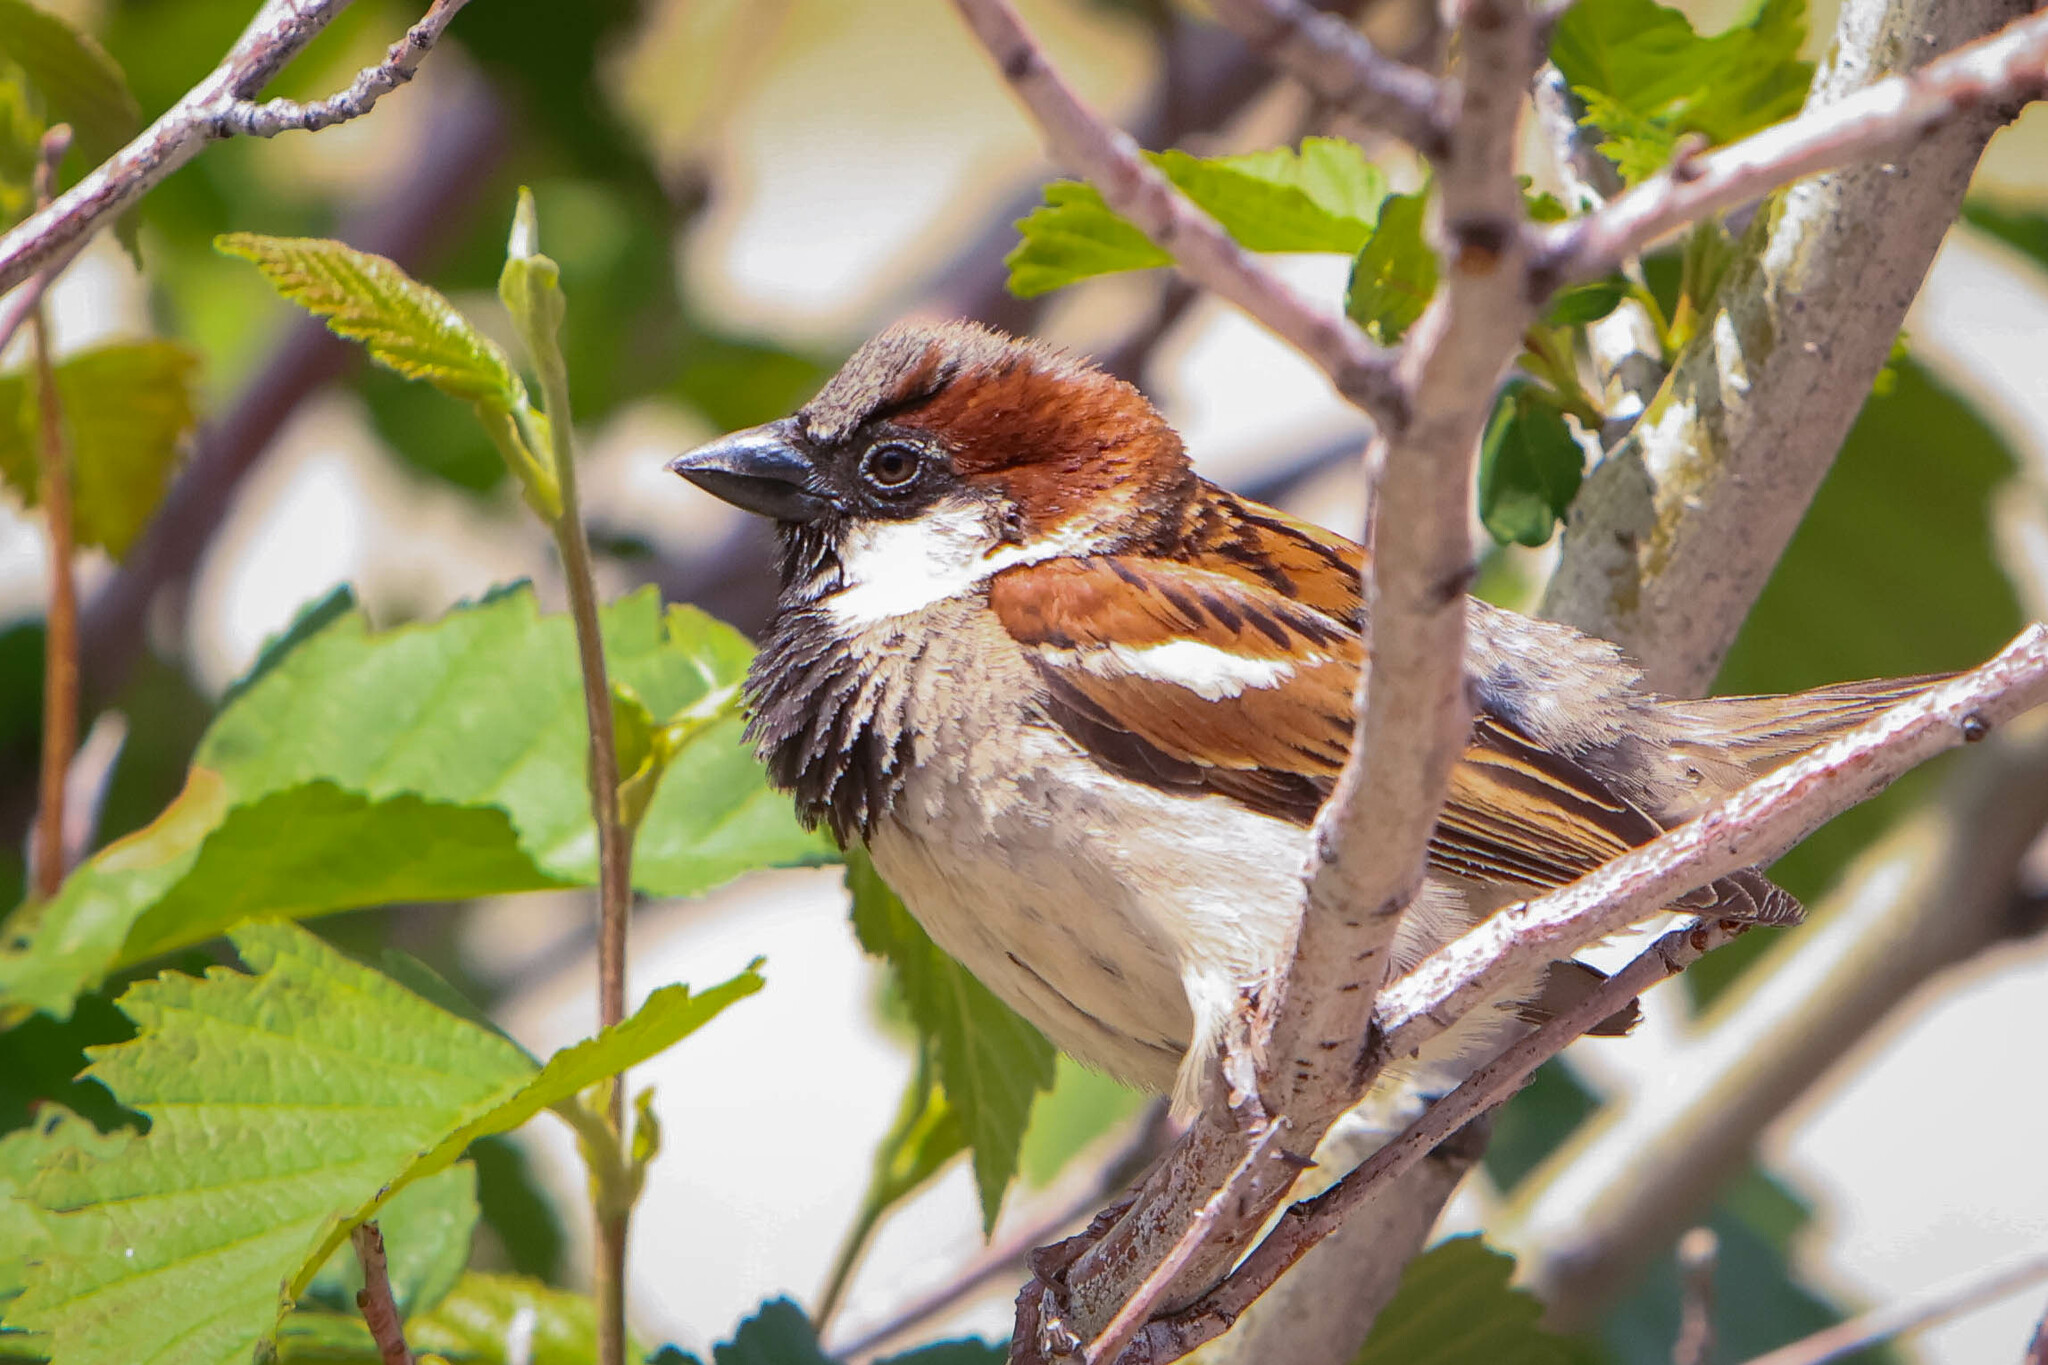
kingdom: Animalia
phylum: Chordata
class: Aves
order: Passeriformes
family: Passeridae
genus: Passer
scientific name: Passer domesticus
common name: House sparrow
